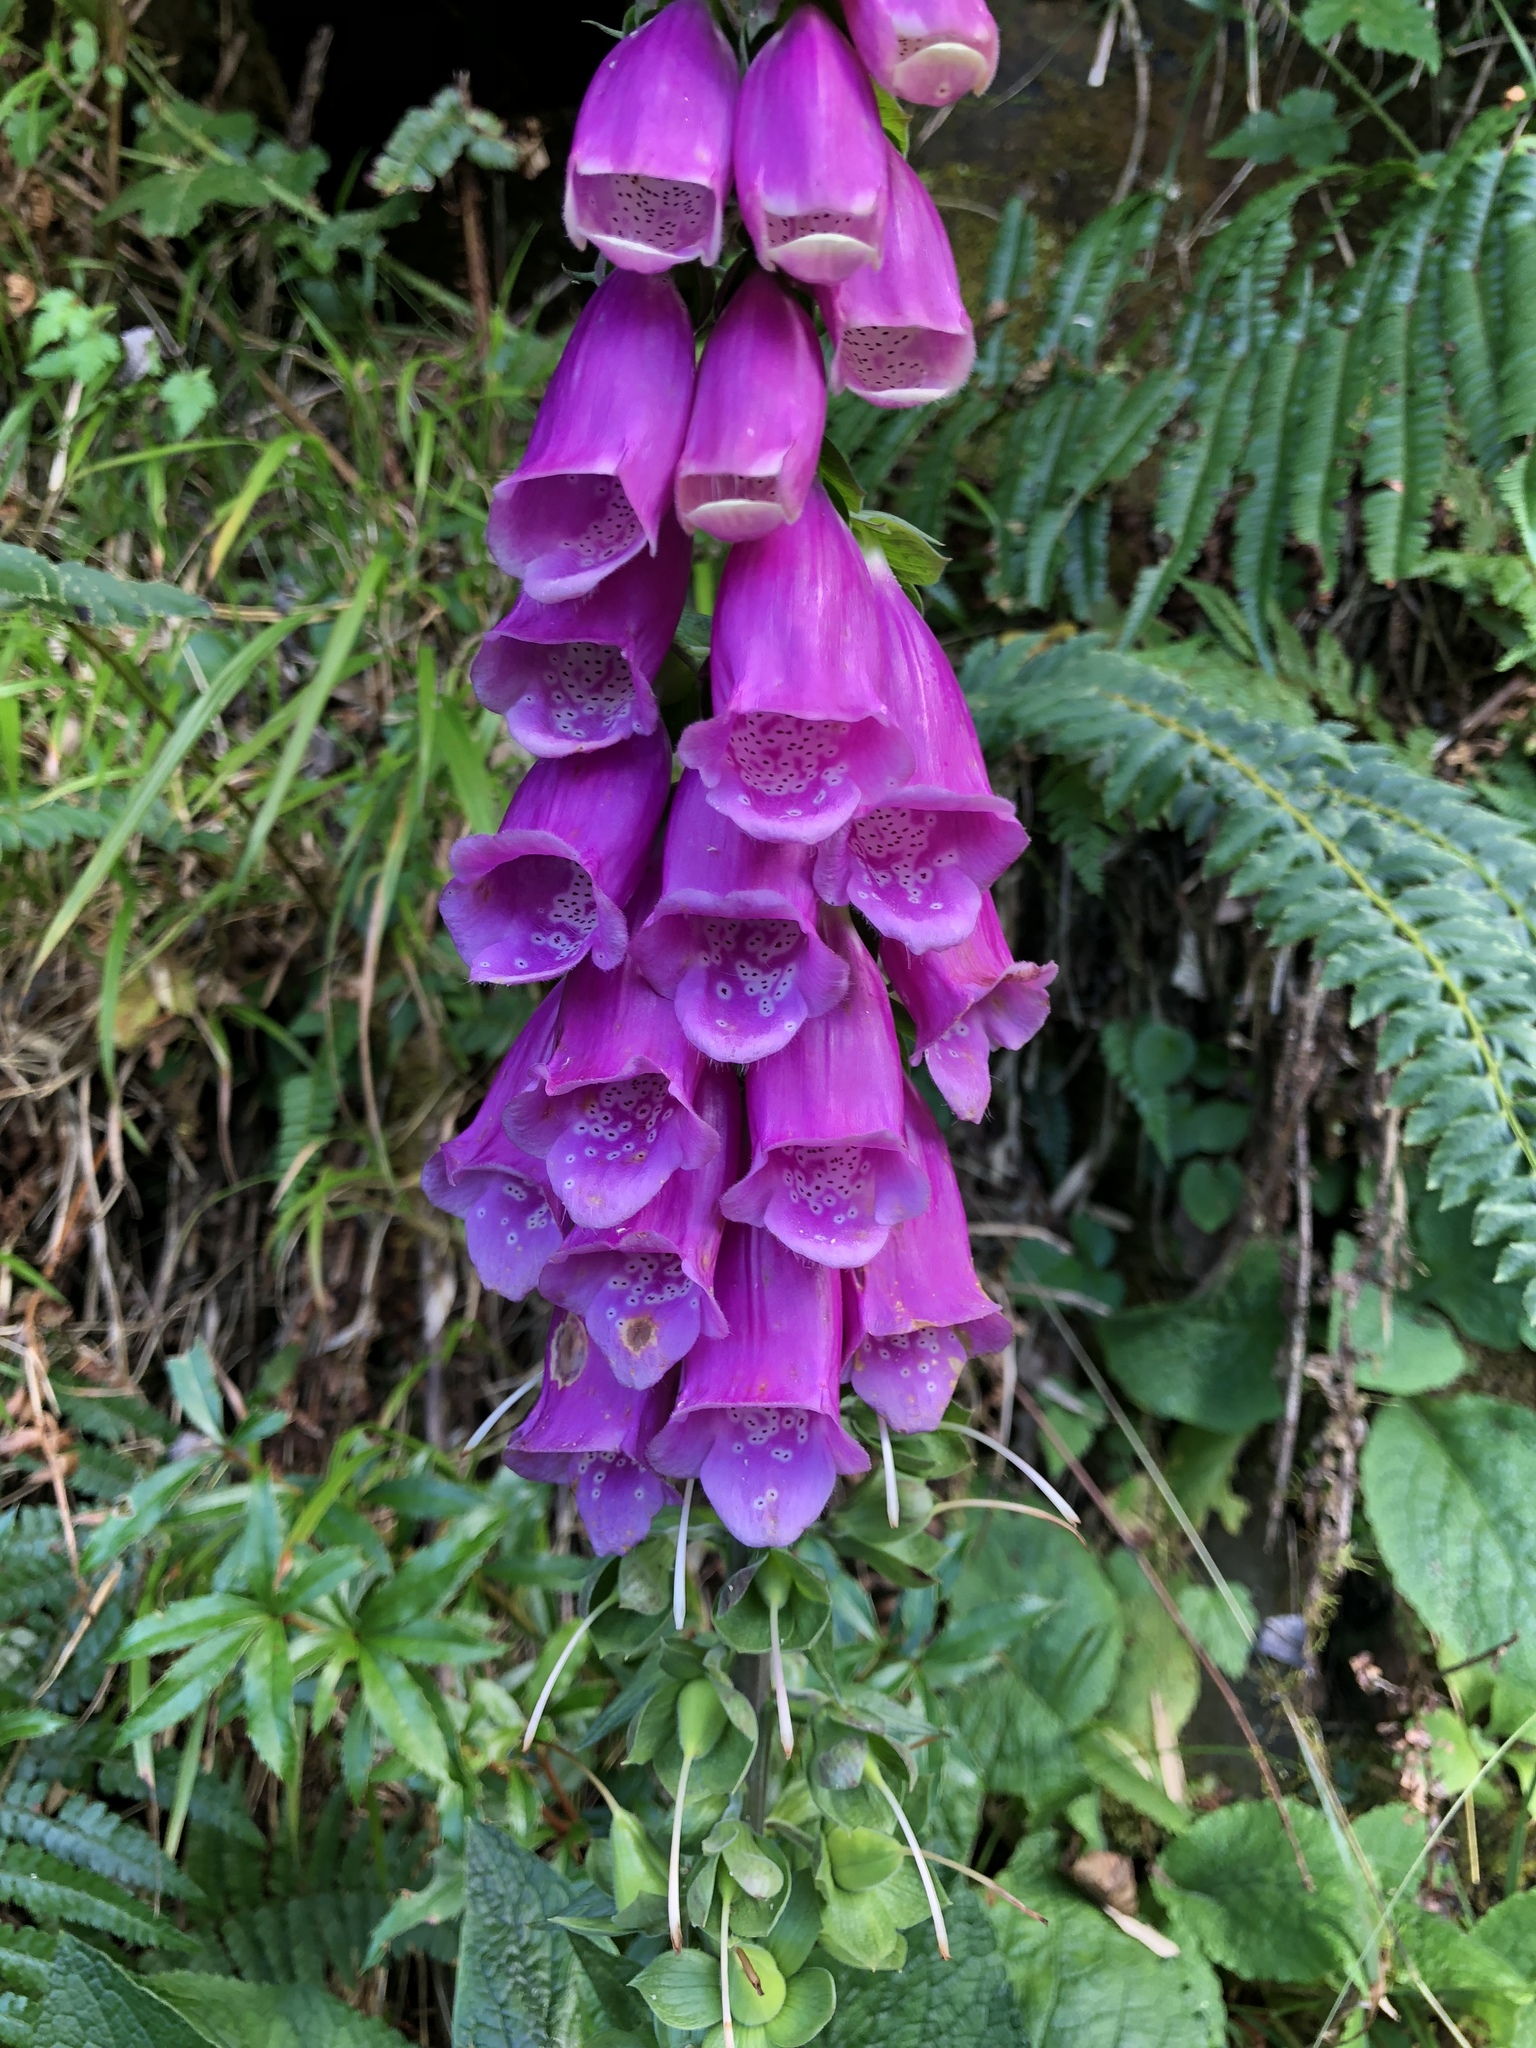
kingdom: Plantae
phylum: Tracheophyta
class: Magnoliopsida
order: Lamiales
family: Plantaginaceae
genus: Digitalis
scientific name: Digitalis purpurea
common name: Foxglove
